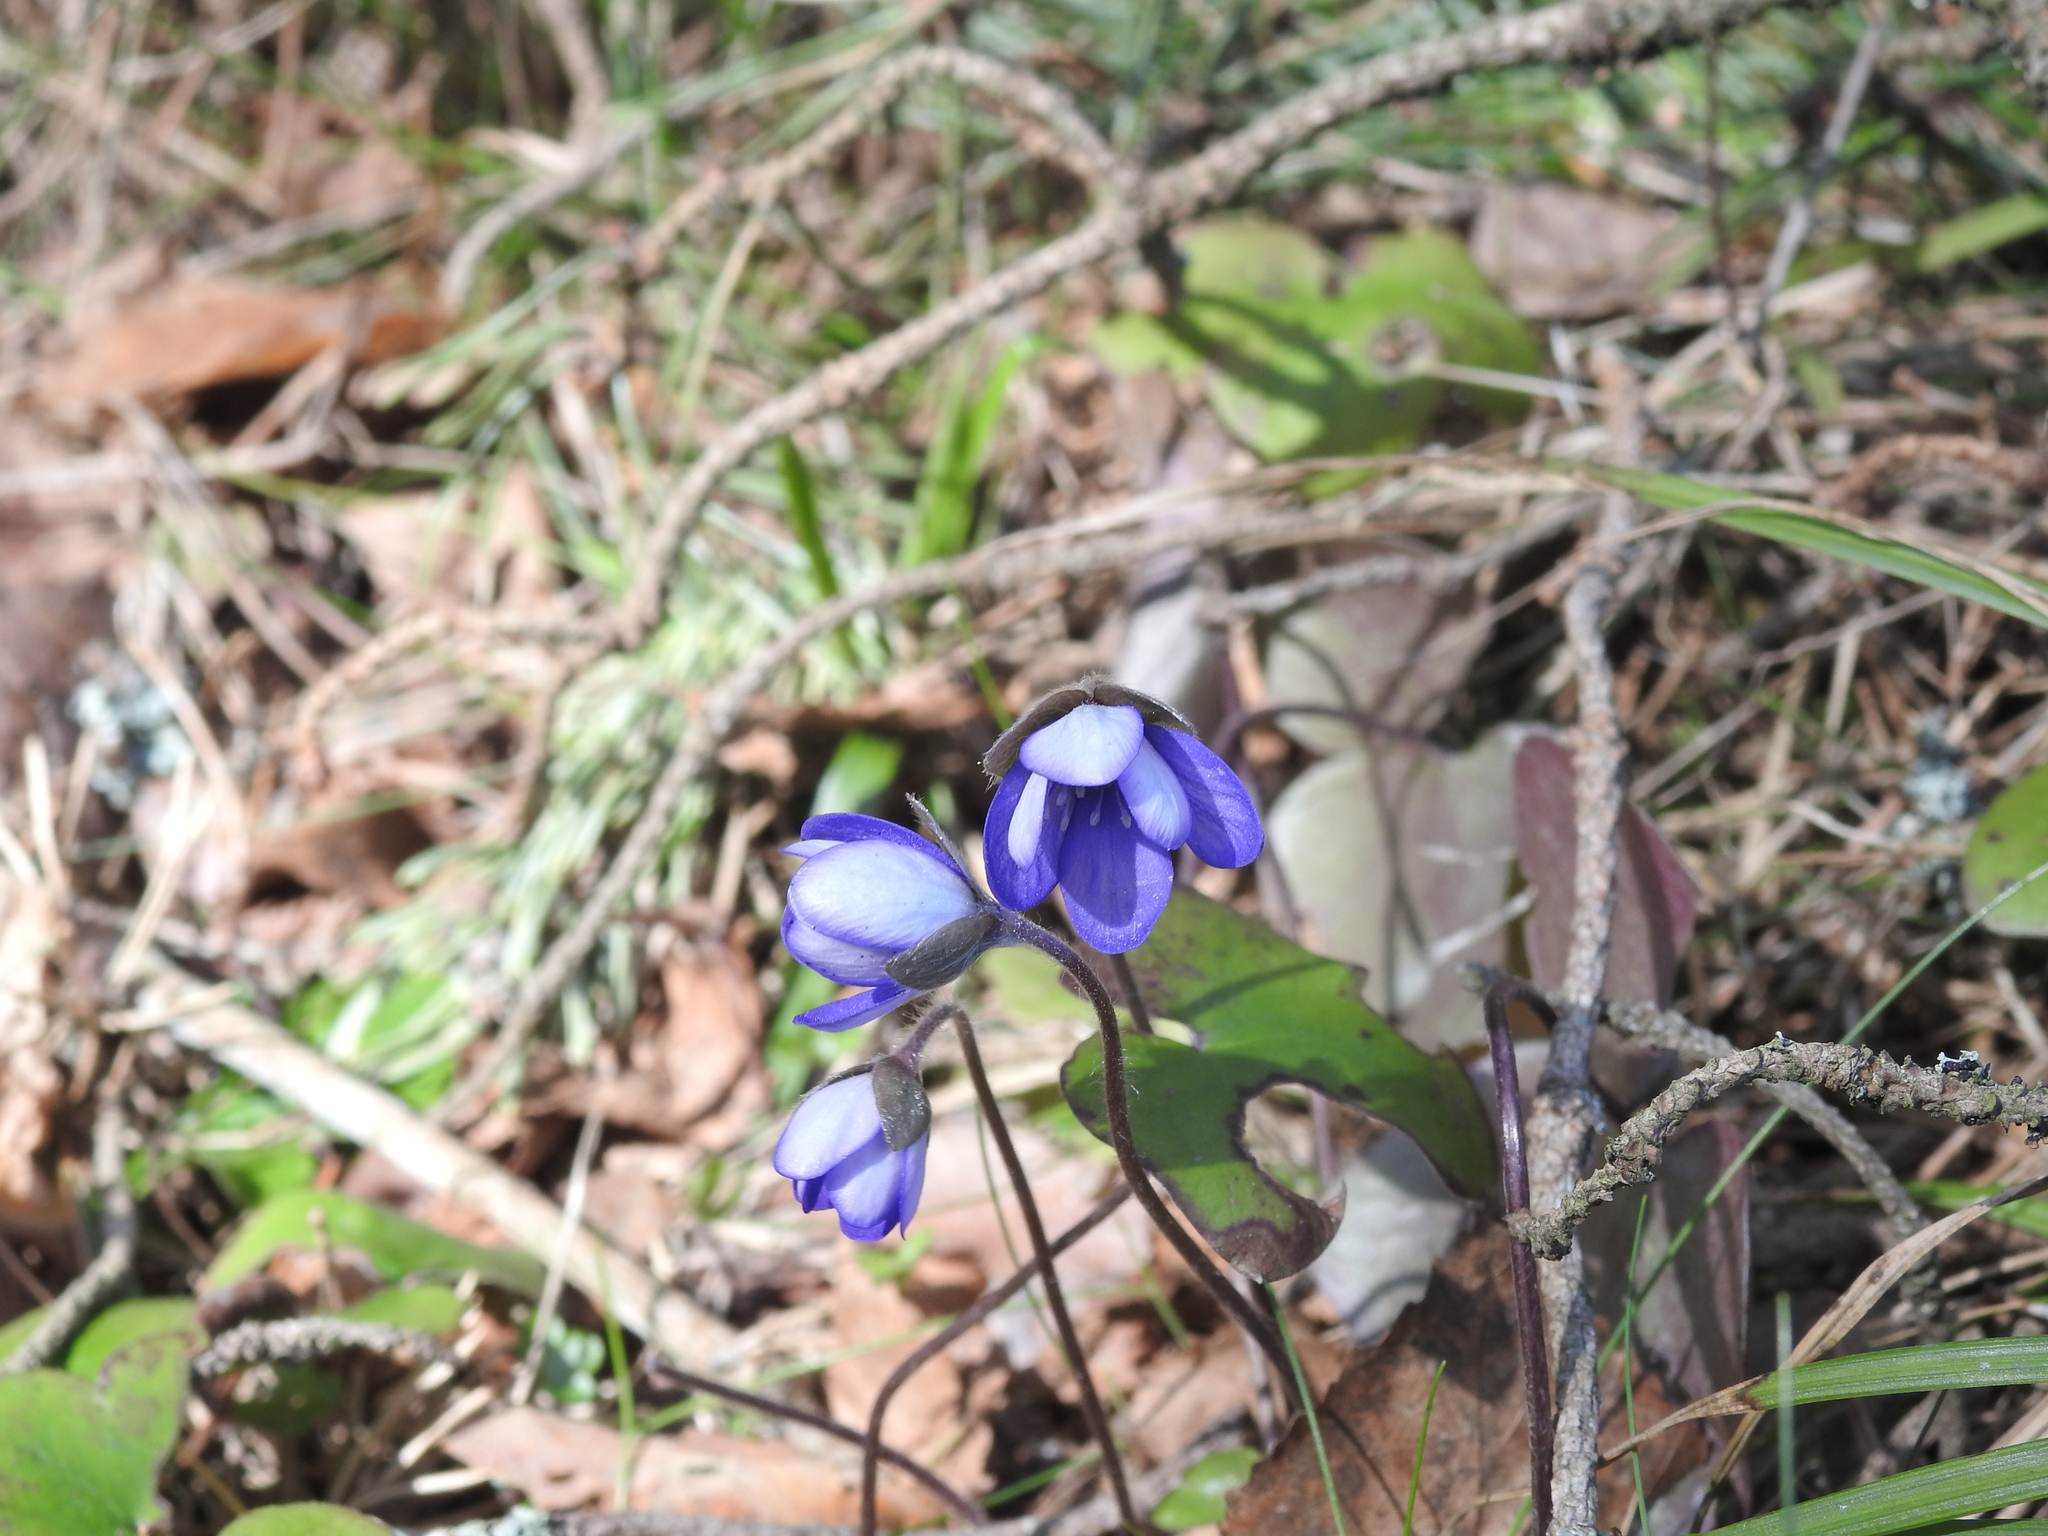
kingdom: Plantae
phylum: Tracheophyta
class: Magnoliopsida
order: Ranunculales
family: Ranunculaceae
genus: Hepatica
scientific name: Hepatica nobilis
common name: Liverleaf
